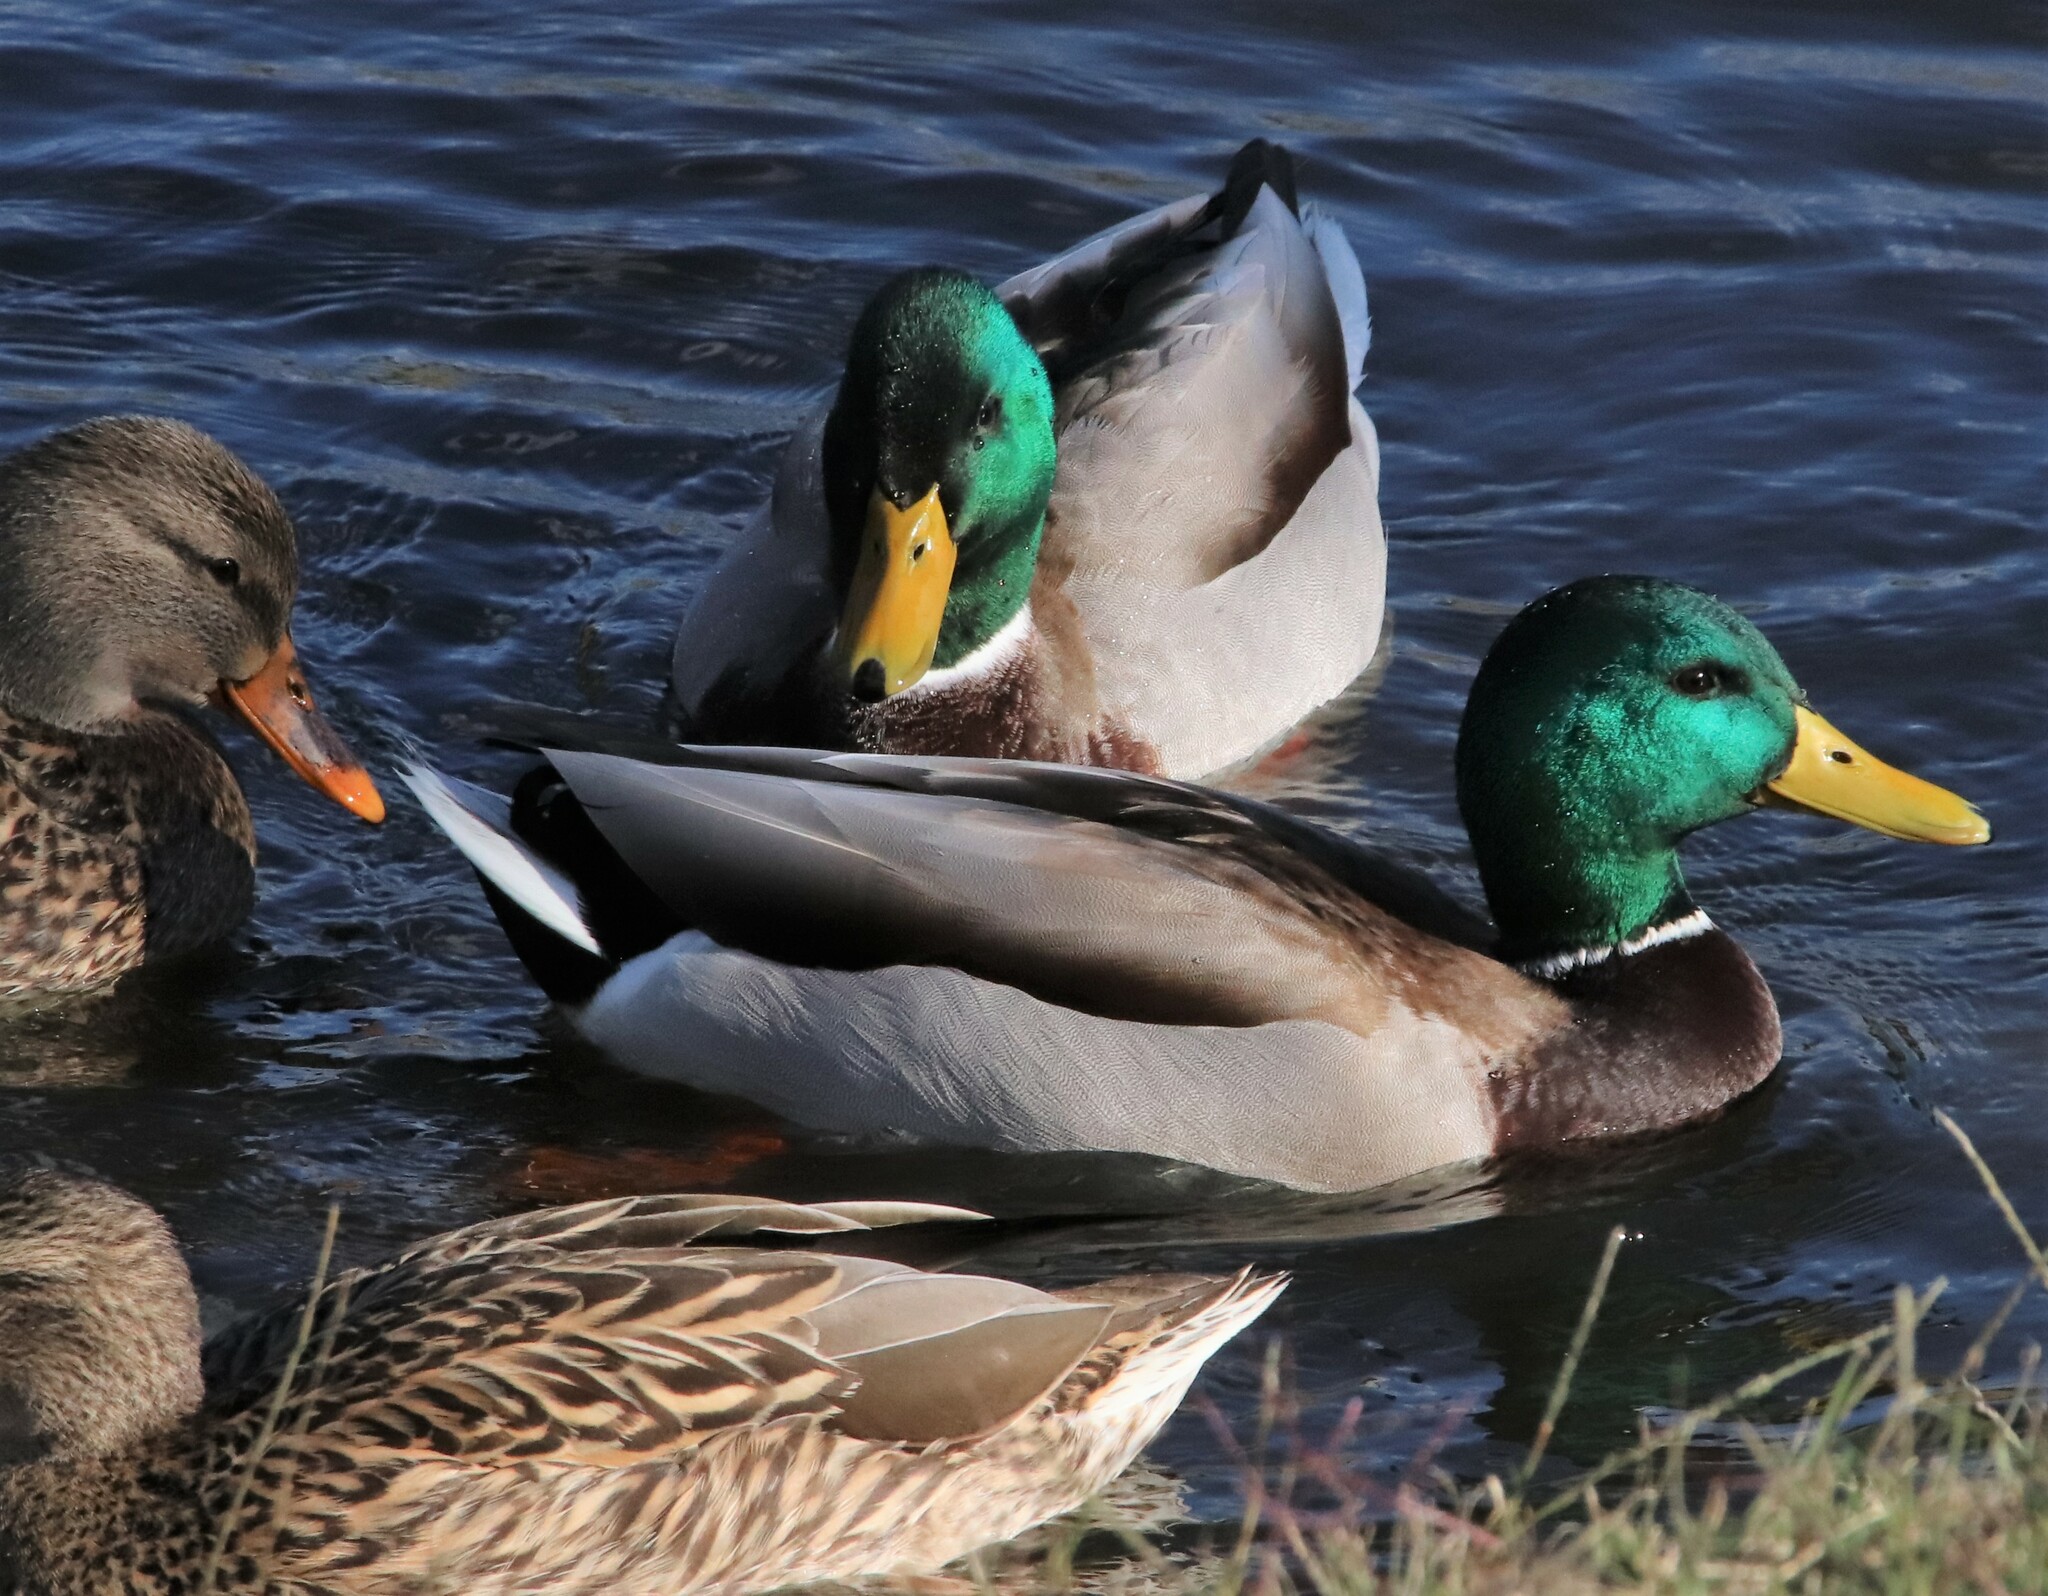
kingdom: Animalia
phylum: Chordata
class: Aves
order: Anseriformes
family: Anatidae
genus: Anas
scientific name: Anas platyrhynchos
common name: Mallard
